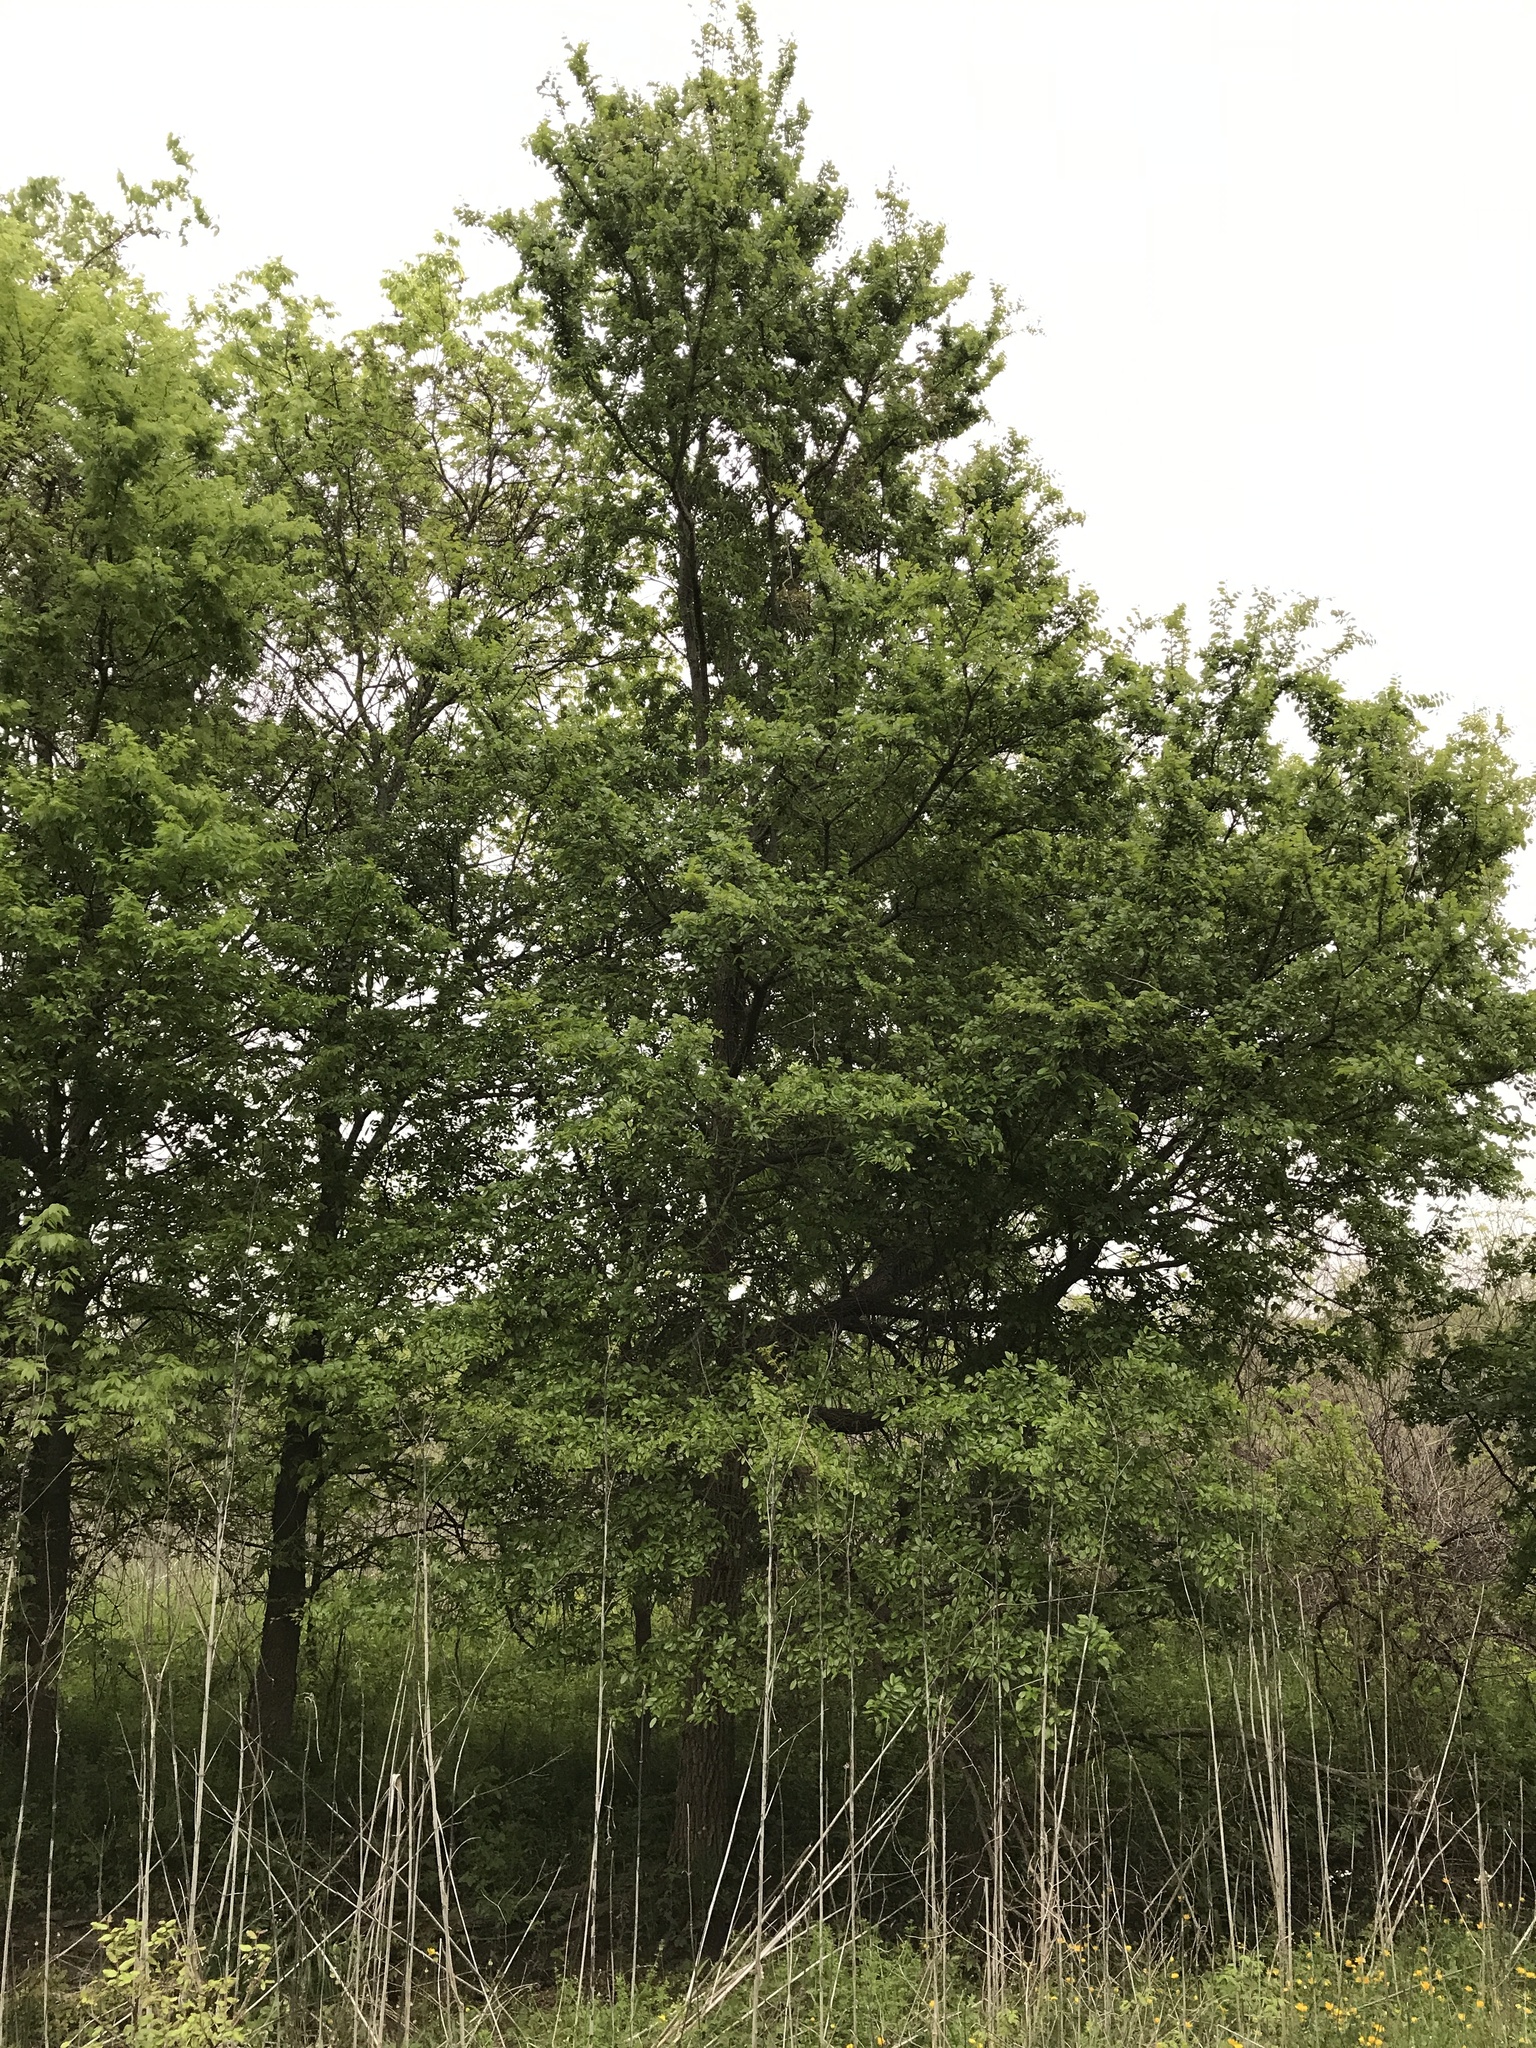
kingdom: Plantae
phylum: Tracheophyta
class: Magnoliopsida
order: Rosales
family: Ulmaceae
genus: Ulmus
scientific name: Ulmus crassifolia
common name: Basket elm
